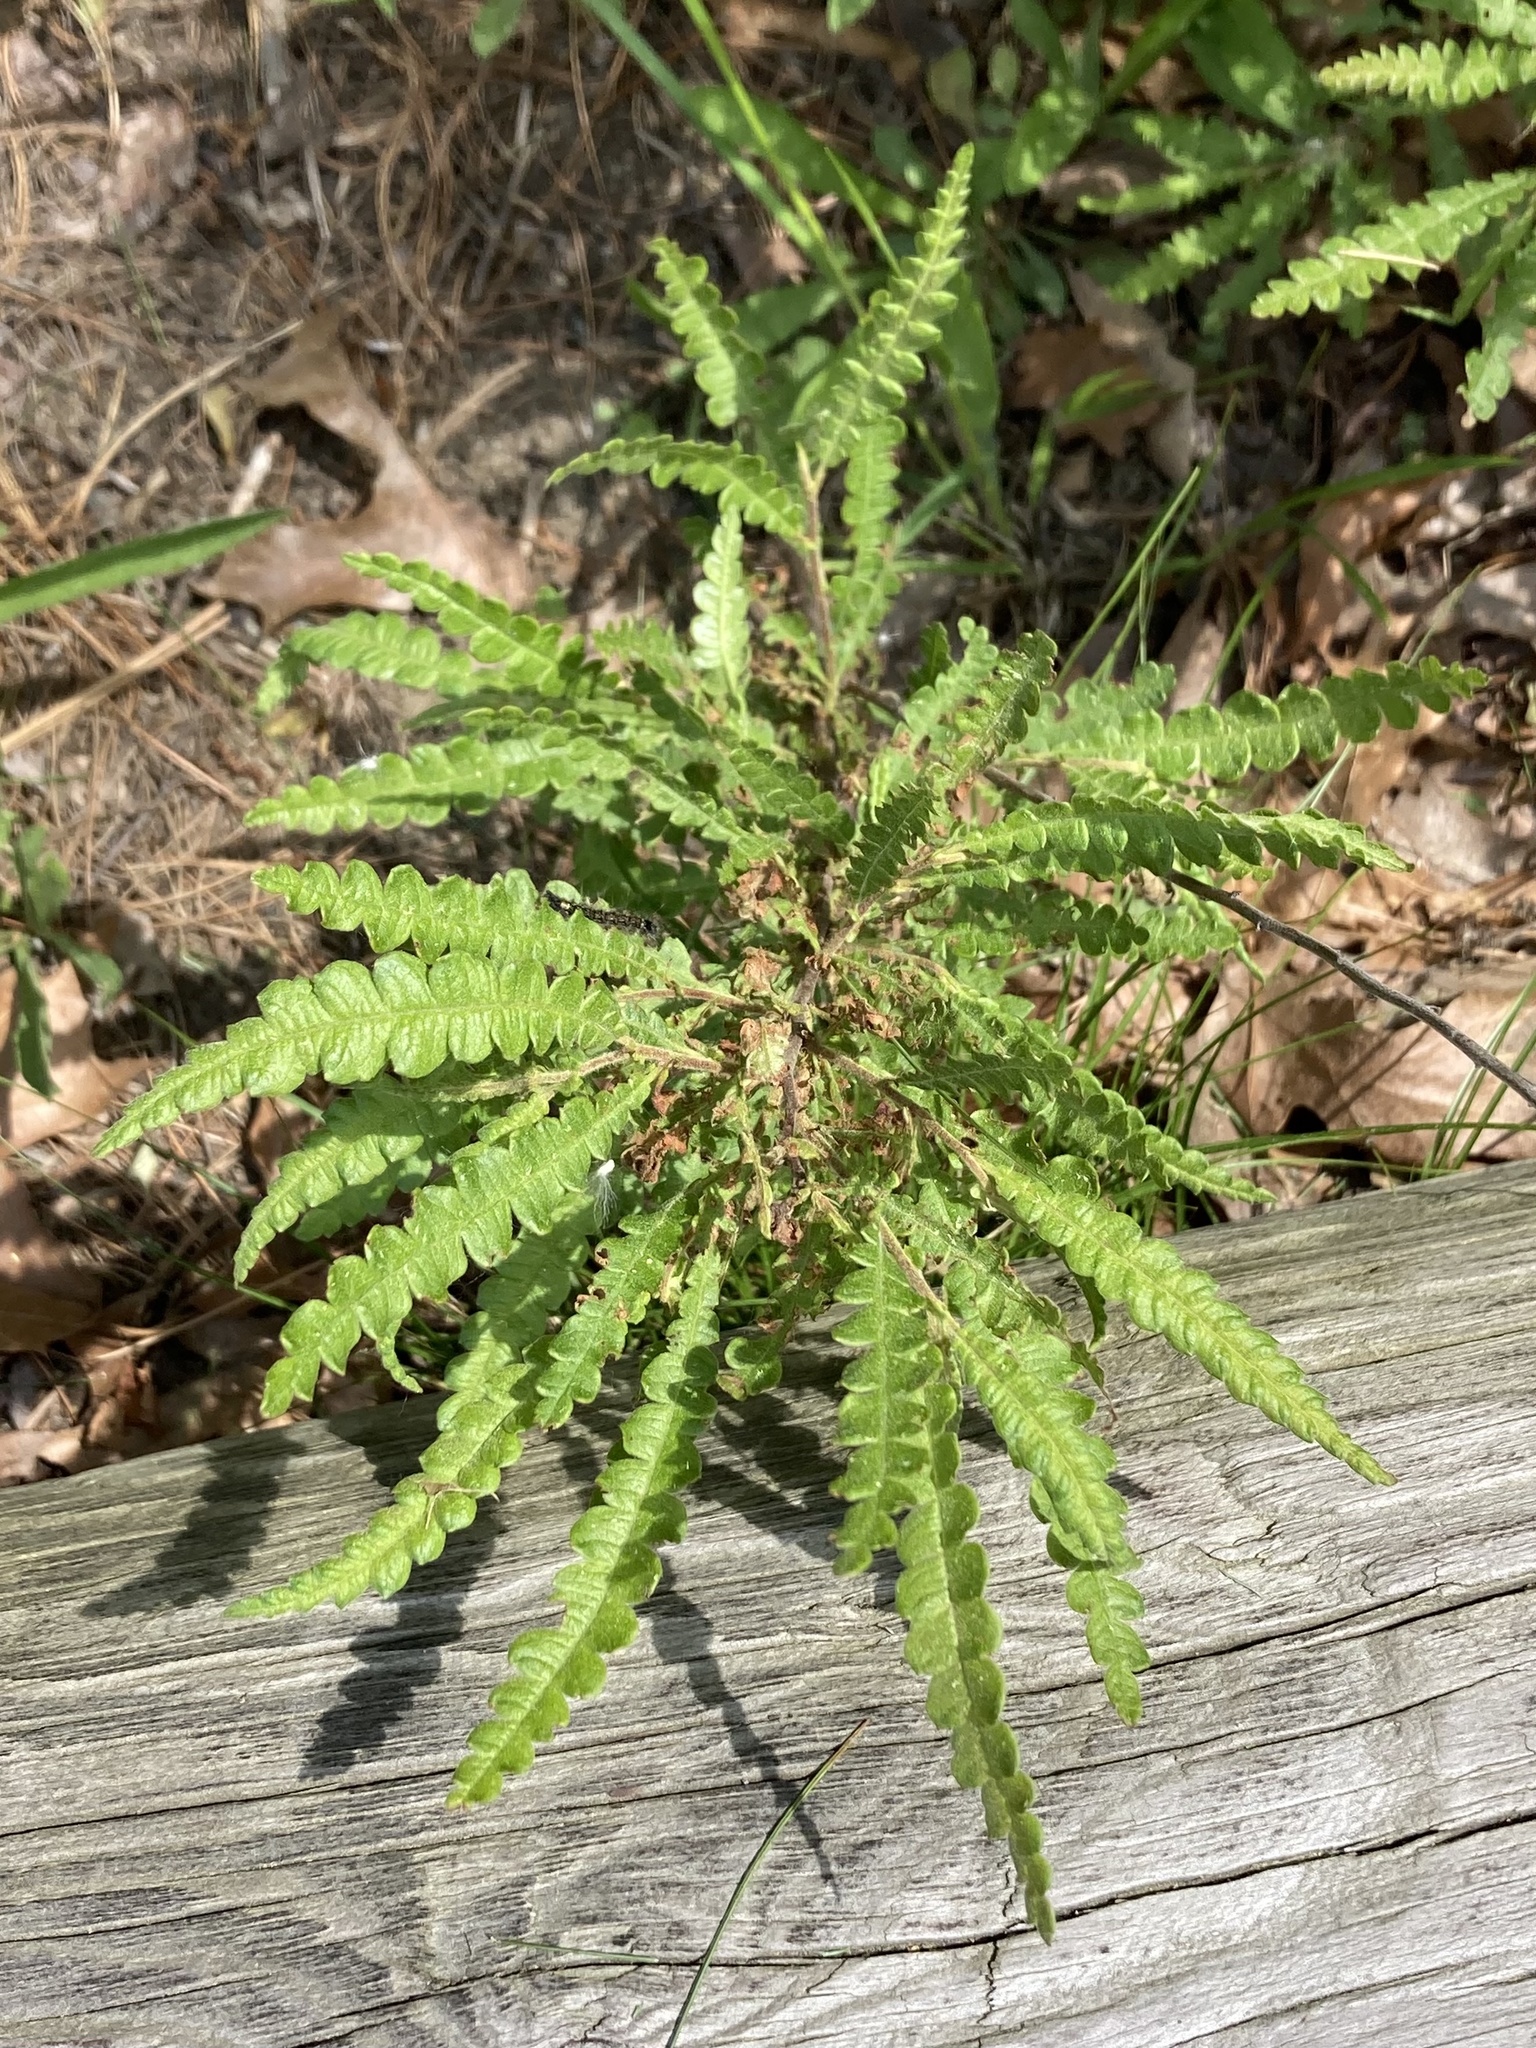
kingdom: Plantae
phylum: Tracheophyta
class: Magnoliopsida
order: Fagales
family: Myricaceae
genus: Comptonia
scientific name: Comptonia peregrina
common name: Sweet-fern
